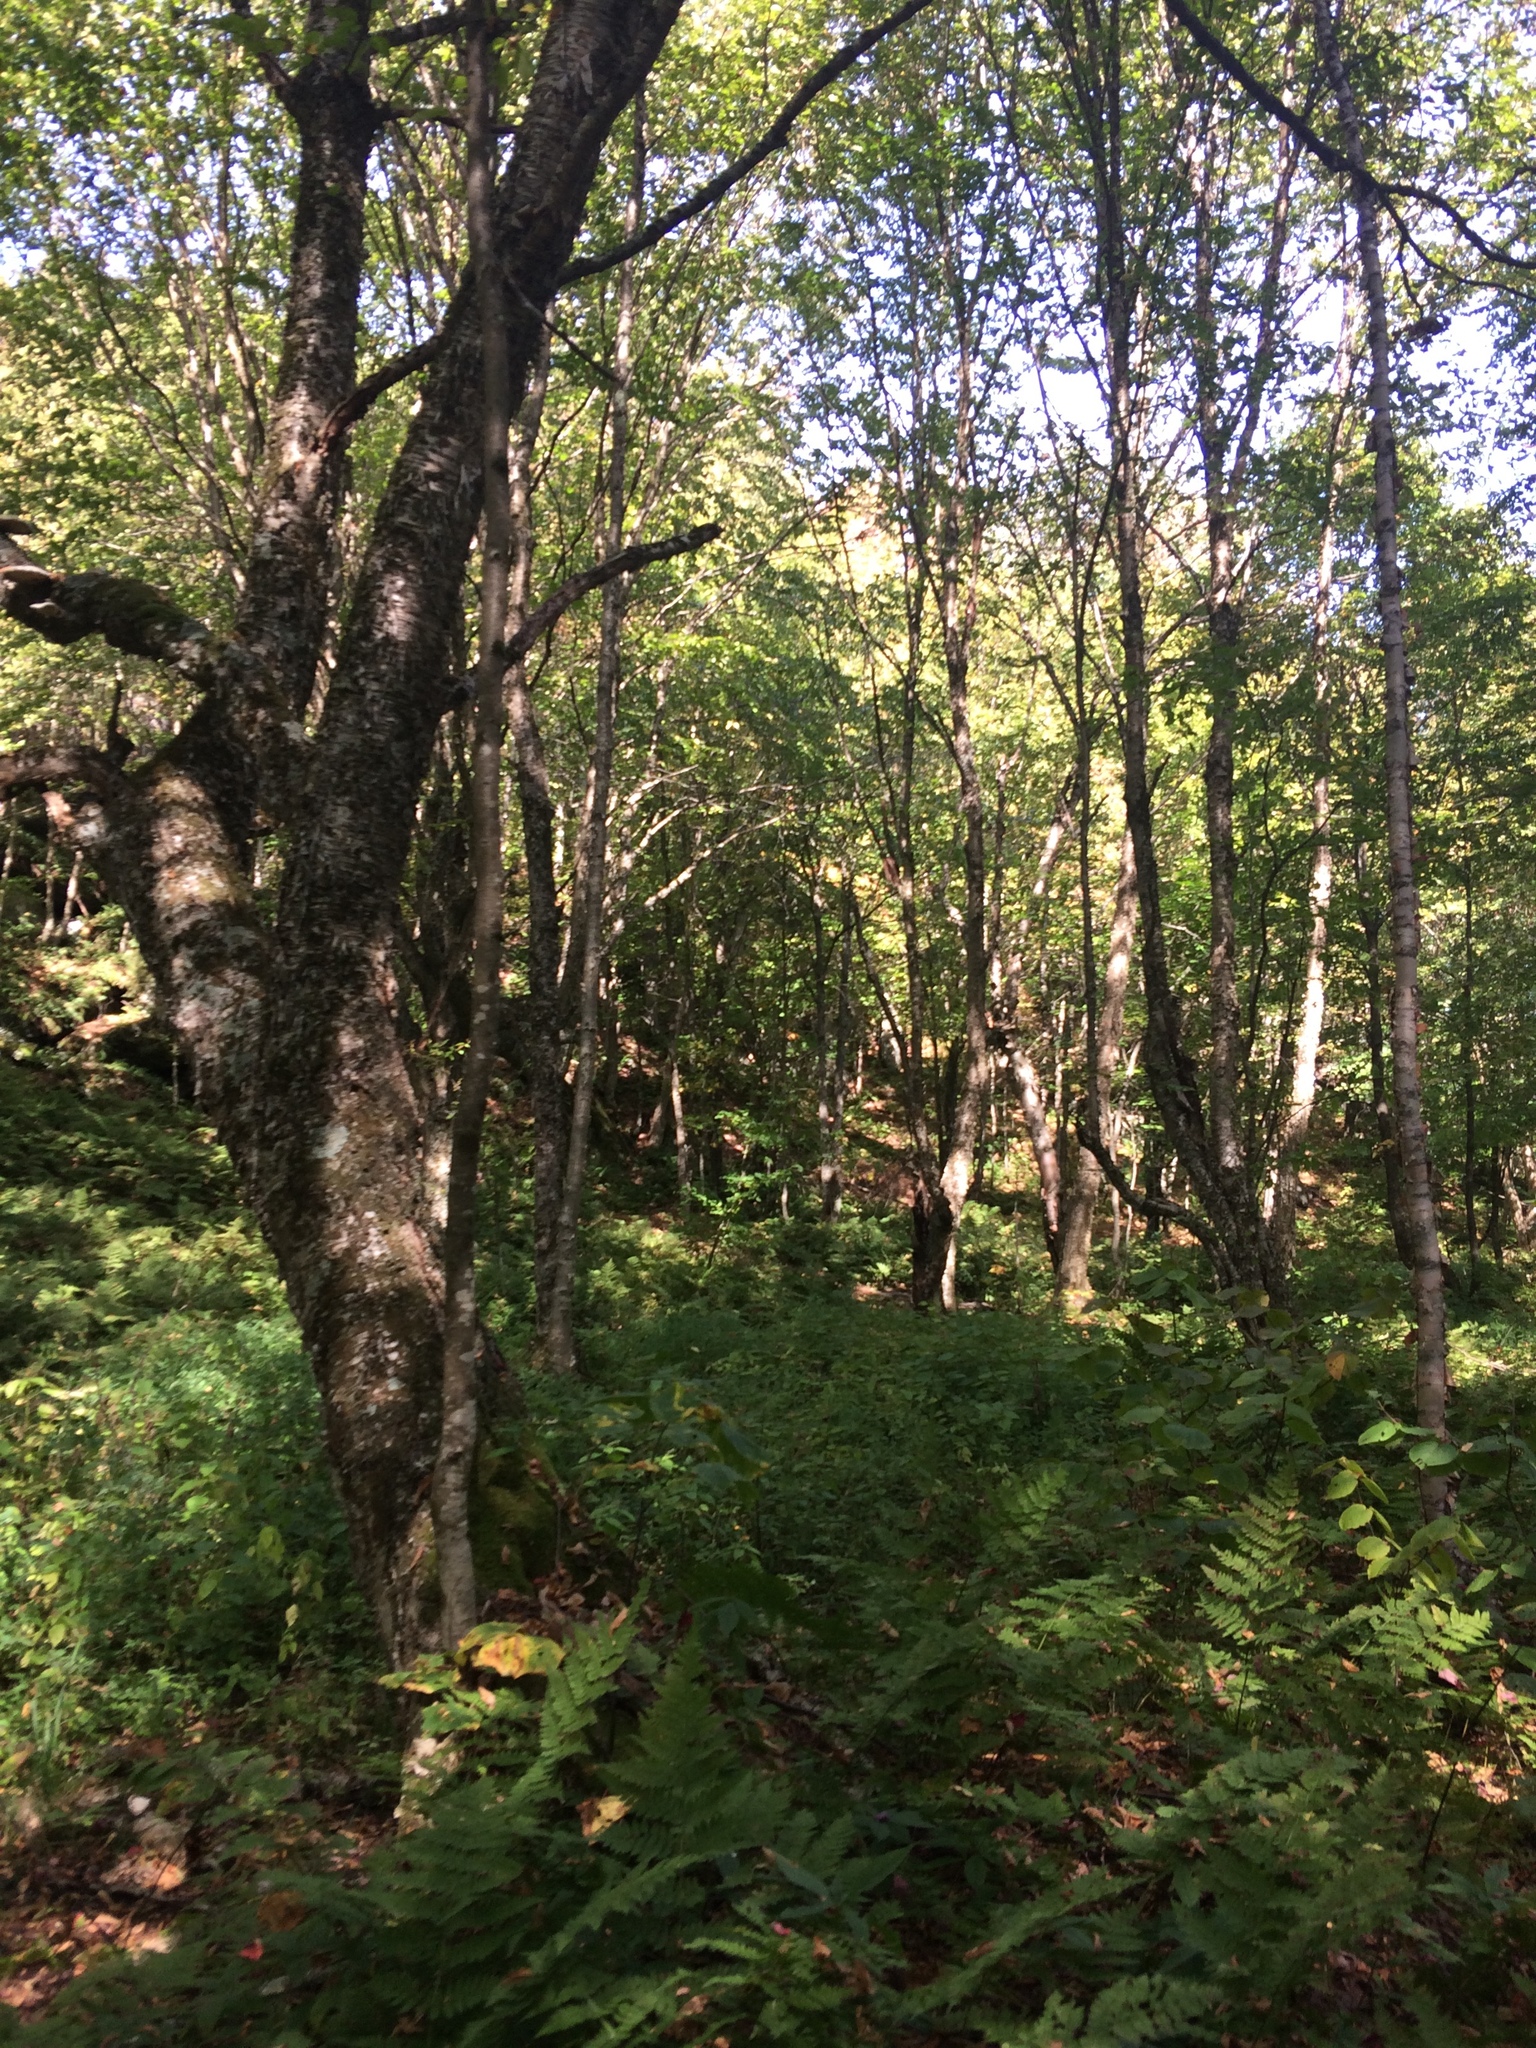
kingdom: Plantae
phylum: Tracheophyta
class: Magnoliopsida
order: Fagales
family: Betulaceae
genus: Betula
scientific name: Betula alleghaniensis
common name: Yellow birch
